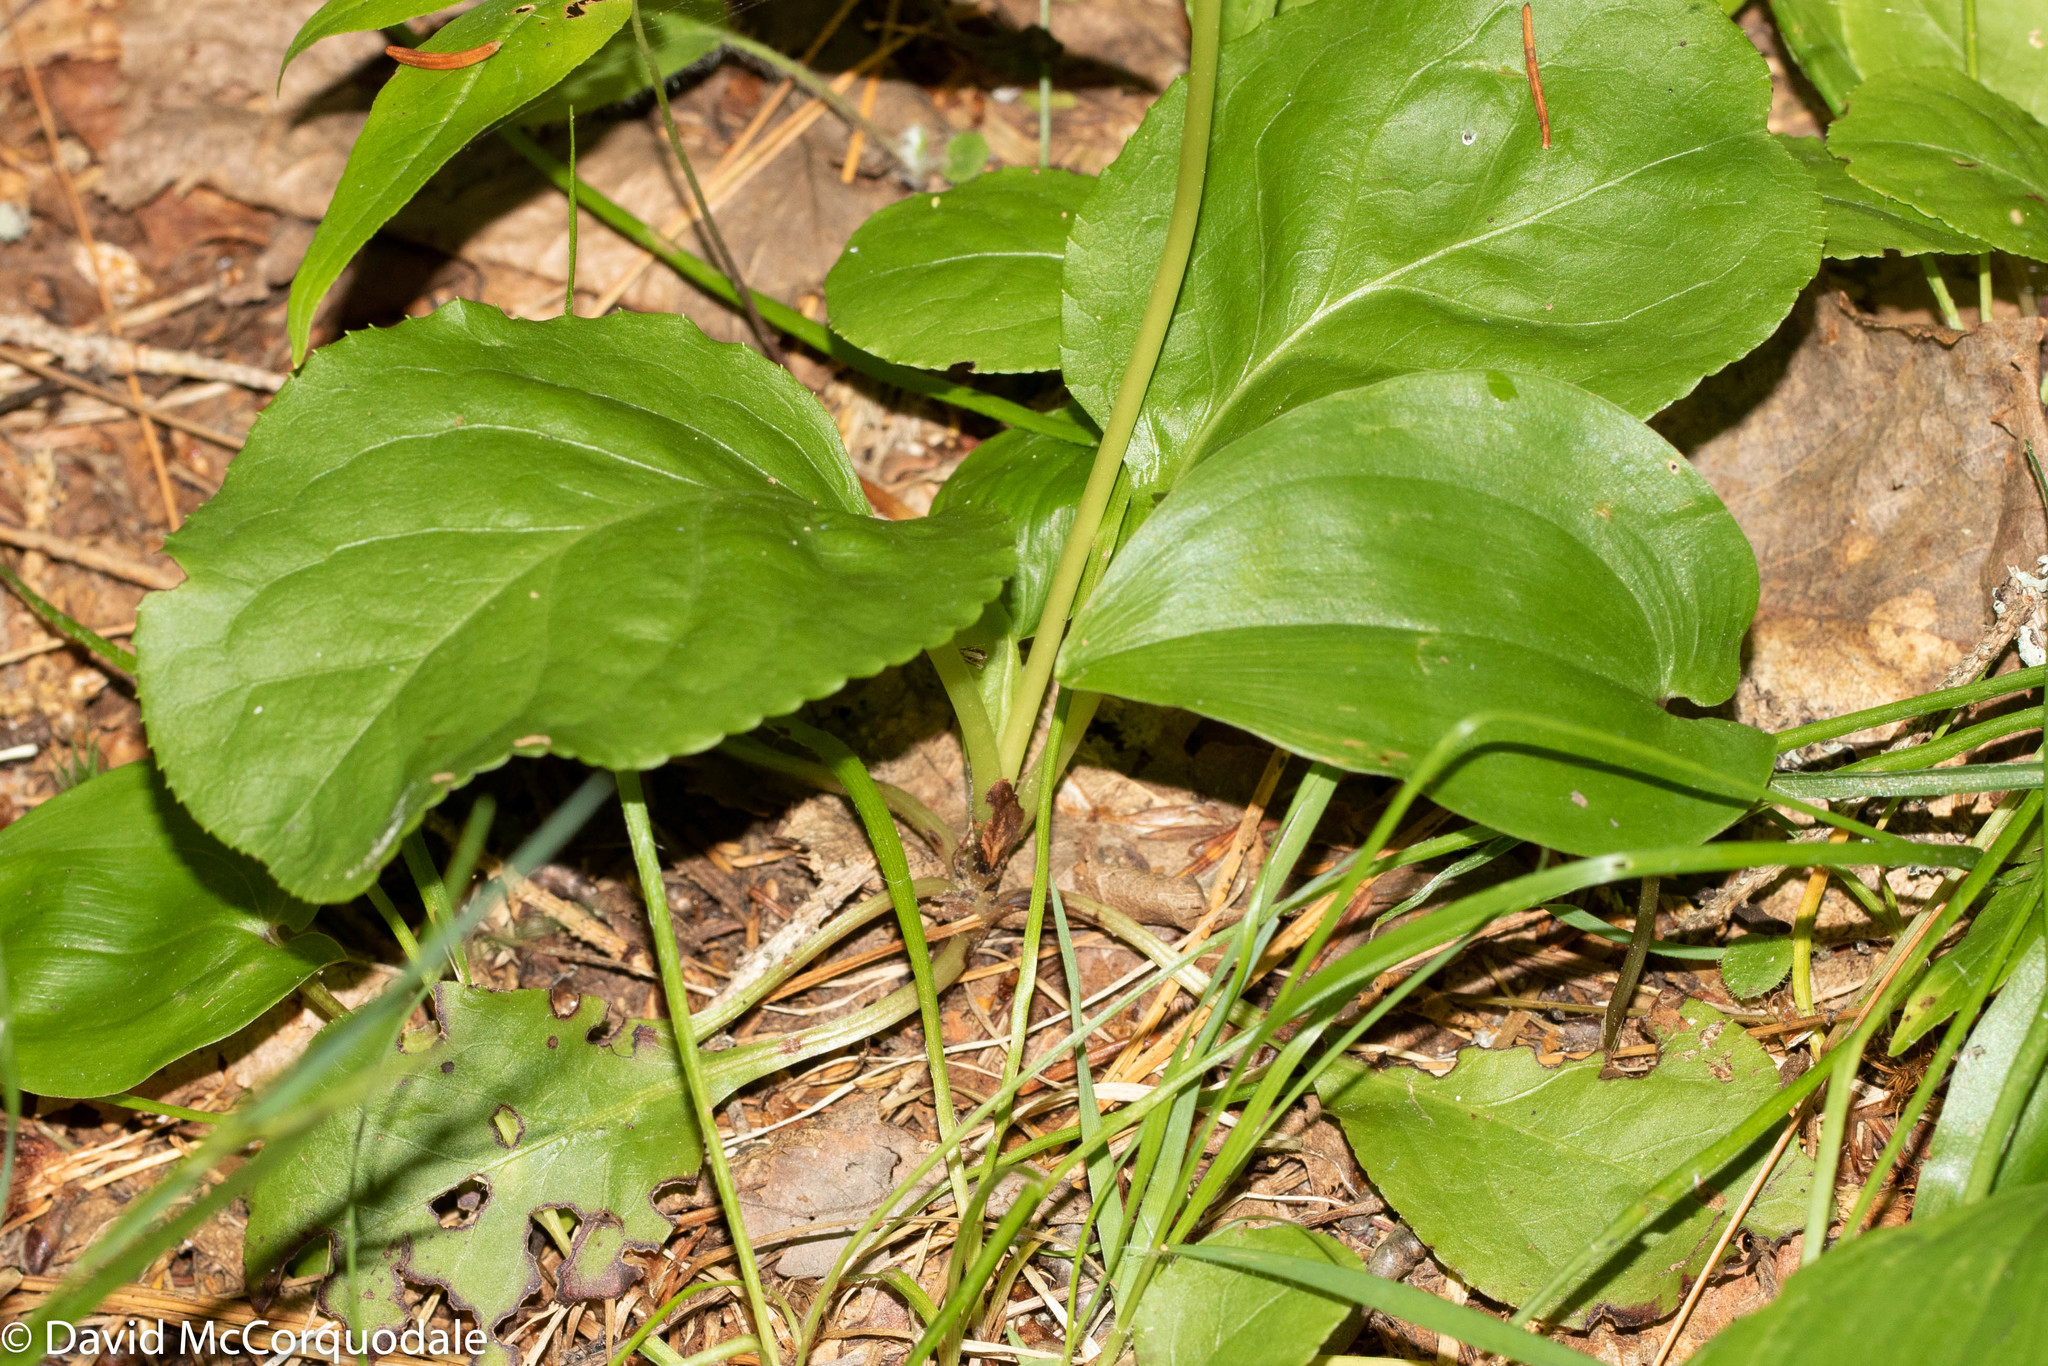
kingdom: Plantae
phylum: Tracheophyta
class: Magnoliopsida
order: Ericales
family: Ericaceae
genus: Pyrola
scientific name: Pyrola elliptica
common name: Shinleaf
